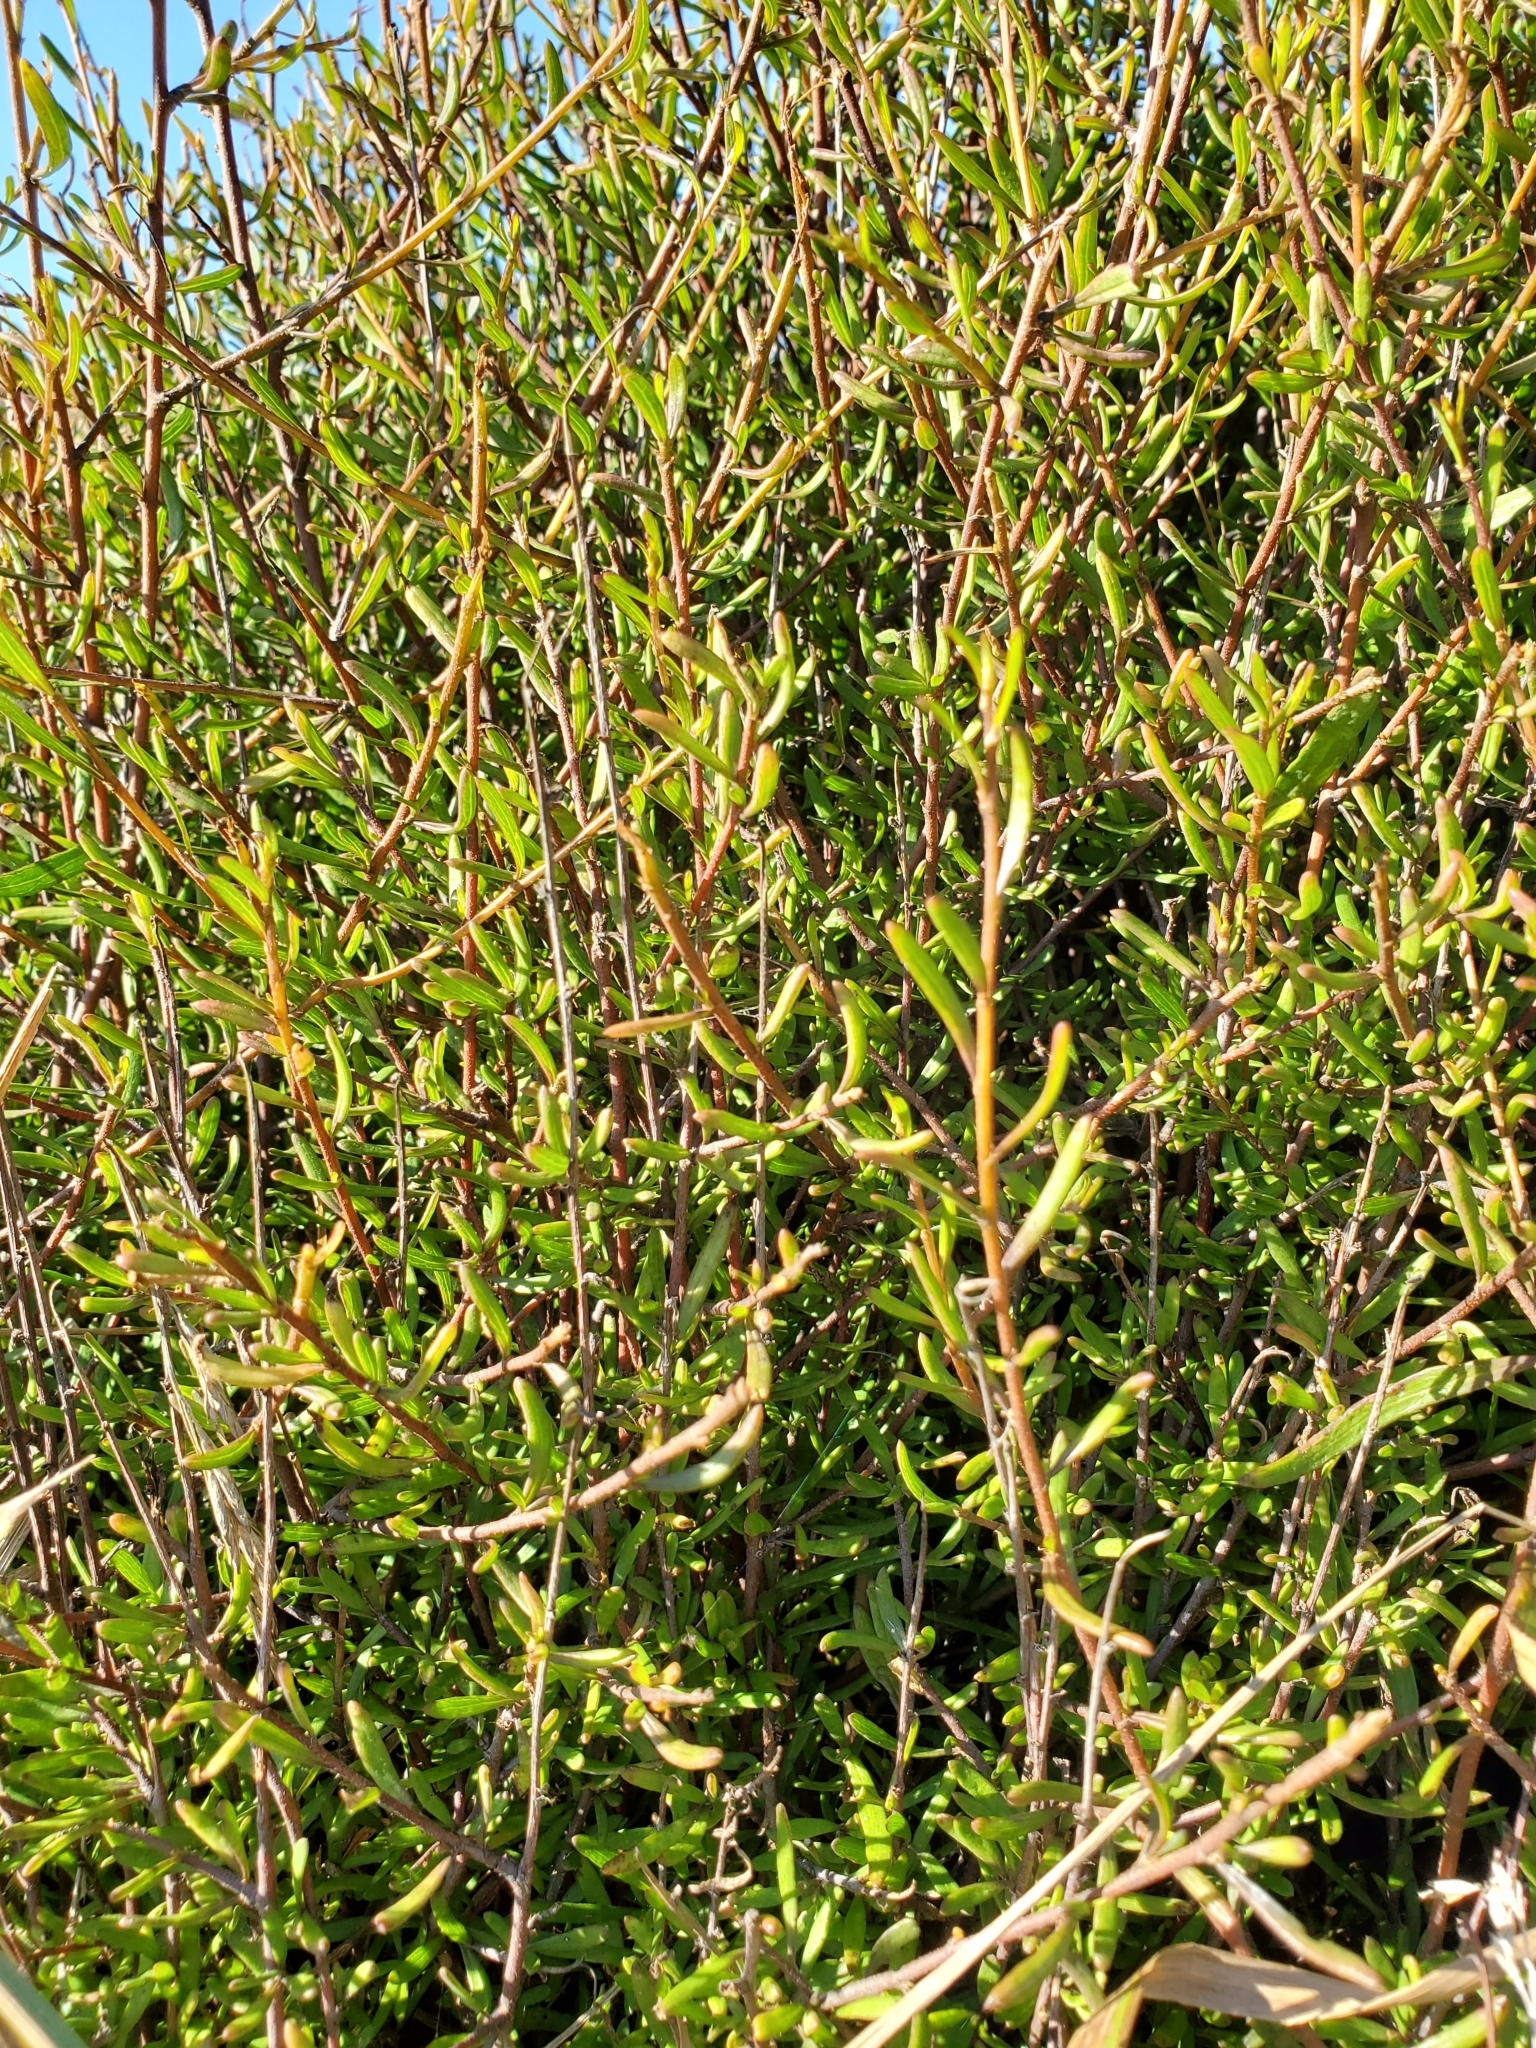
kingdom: Plantae
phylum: Tracheophyta
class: Magnoliopsida
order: Malvales
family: Malvaceae
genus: Plagianthus
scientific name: Plagianthus divaricatus
